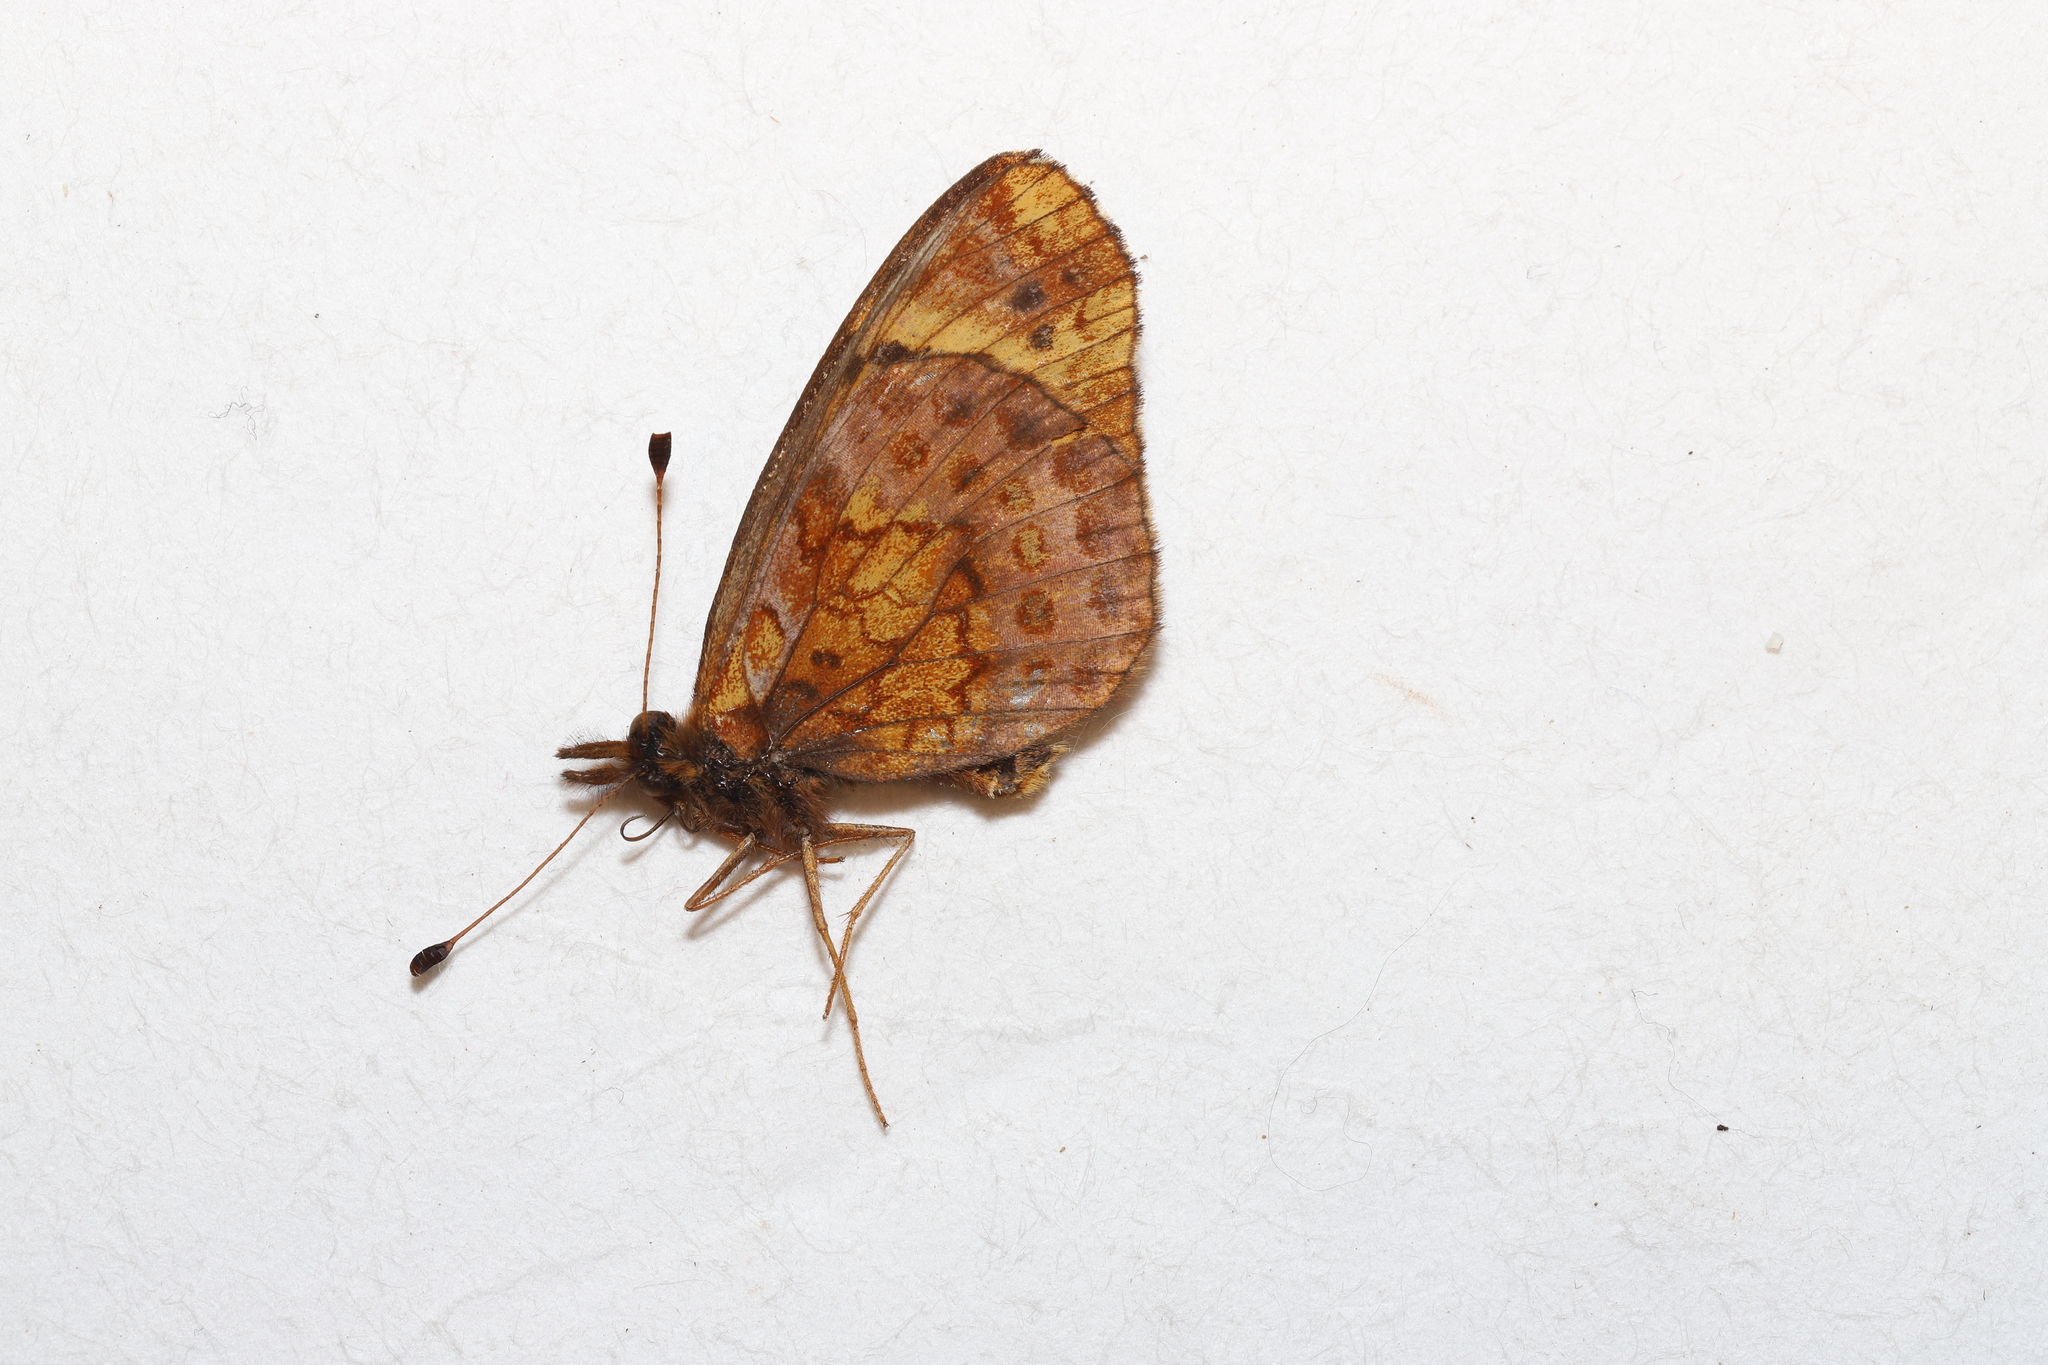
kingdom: Animalia
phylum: Arthropoda
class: Insecta
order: Lepidoptera
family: Nymphalidae
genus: Clossiana
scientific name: Clossiana toddi
